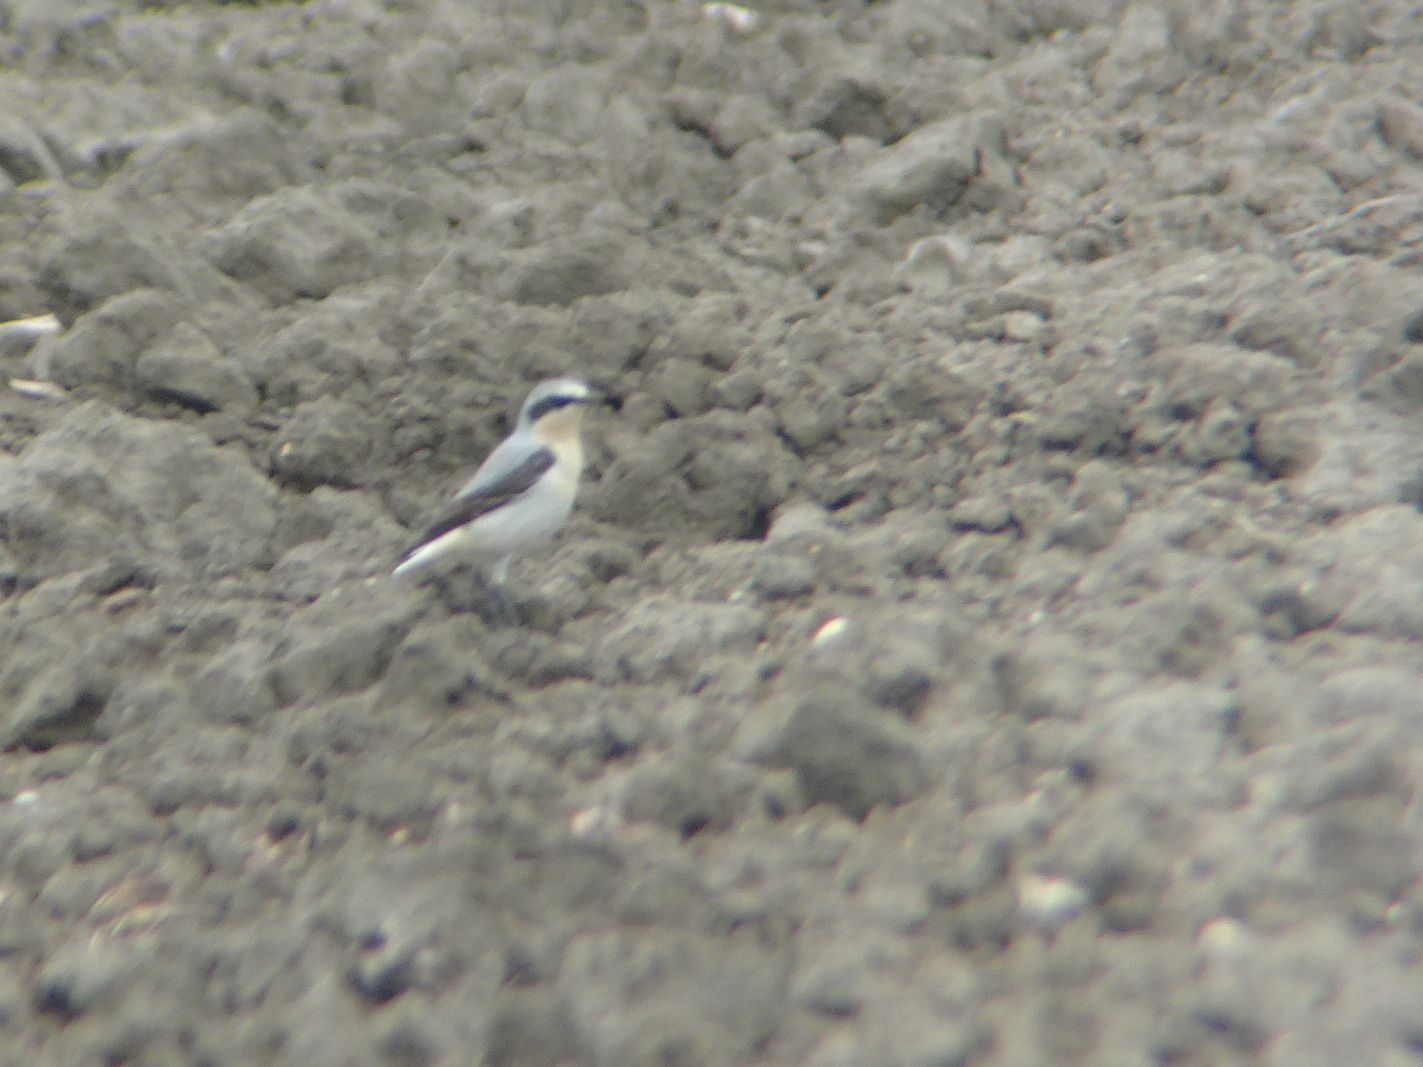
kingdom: Animalia
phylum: Chordata
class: Aves
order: Passeriformes
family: Muscicapidae
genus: Oenanthe
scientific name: Oenanthe oenanthe
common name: Northern wheatear
